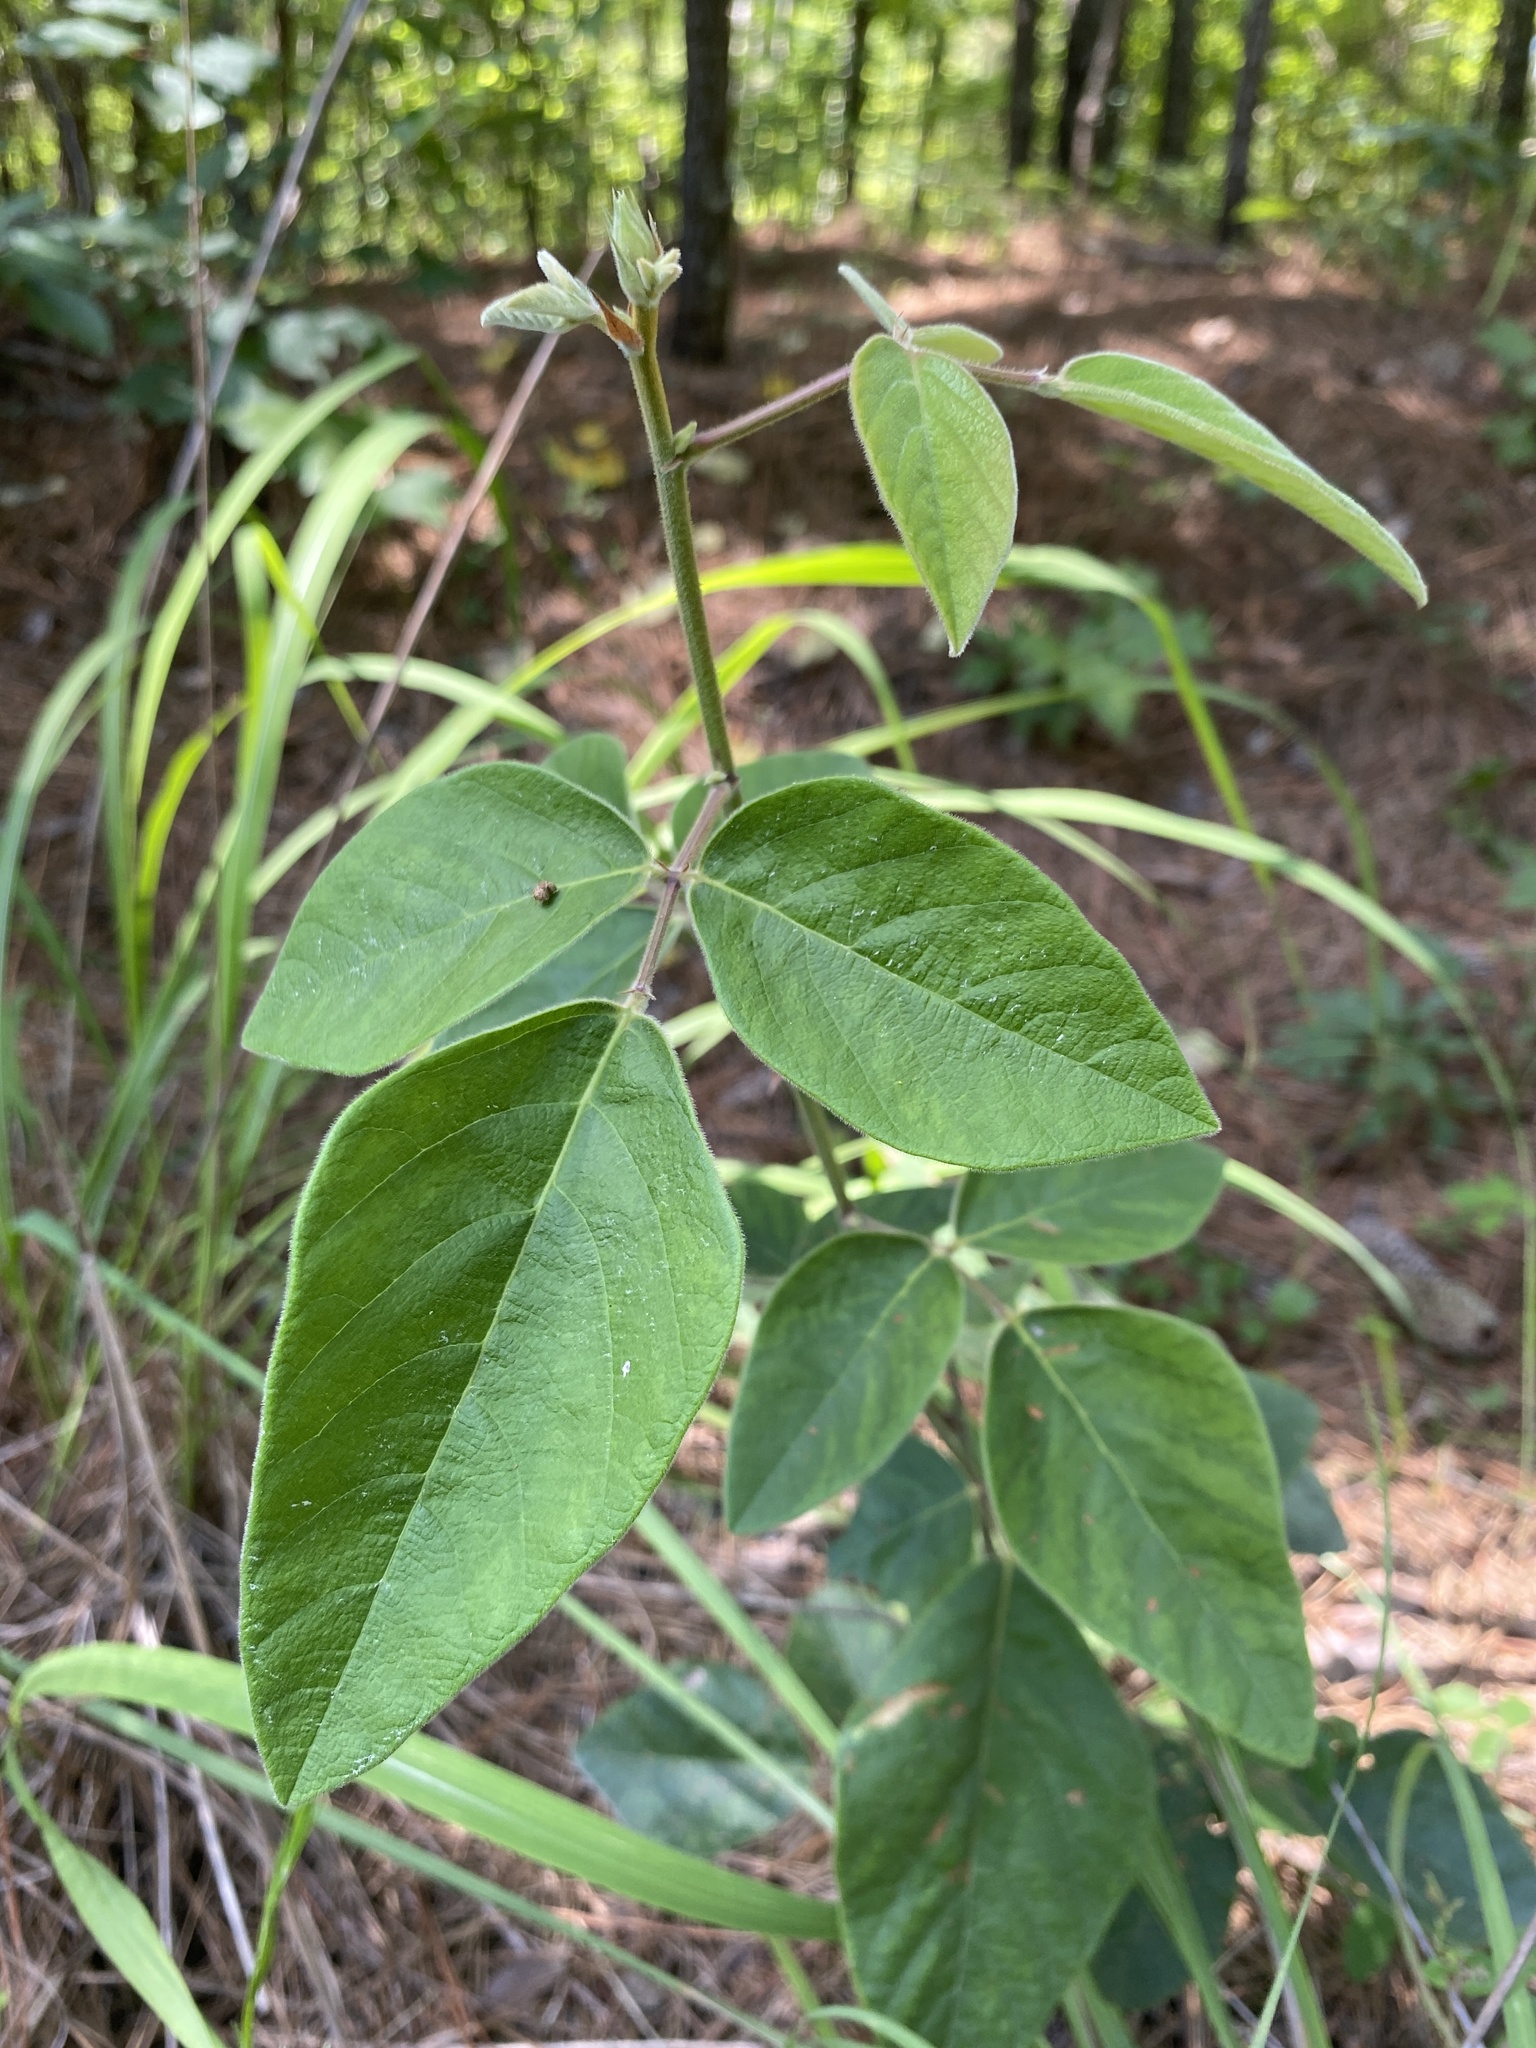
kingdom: Plantae
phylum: Tracheophyta
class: Magnoliopsida
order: Fabales
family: Fabaceae
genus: Desmodium
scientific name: Desmodium viridiflorum
